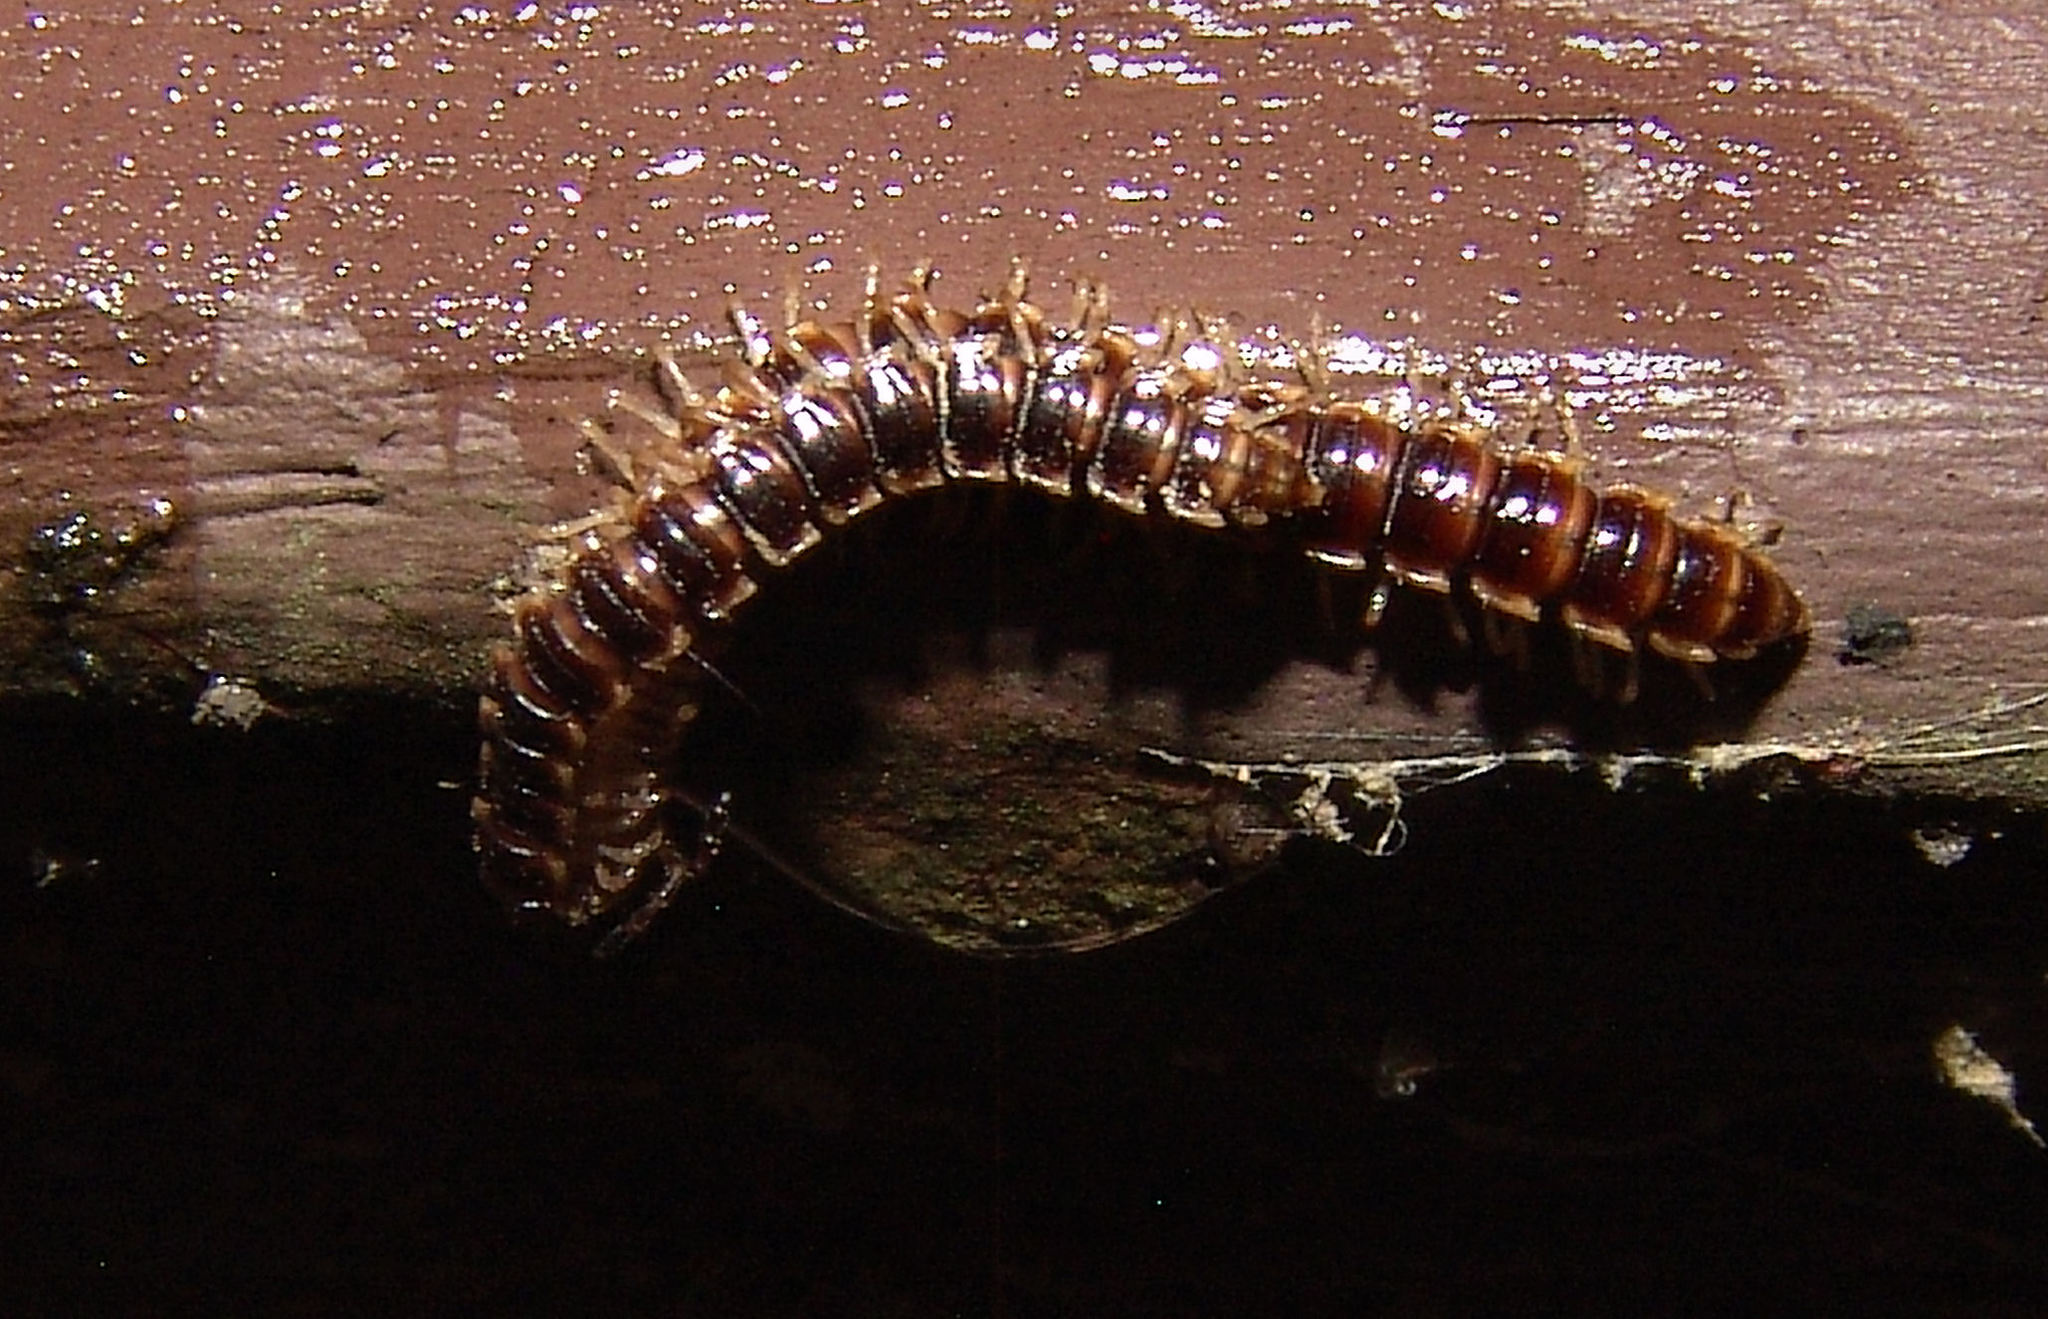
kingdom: Animalia
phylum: Arthropoda
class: Diplopoda
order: Polydesmida
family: Paradoxosomatidae
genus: Oxidus
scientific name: Oxidus gracilis
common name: Greenhouse millipede
